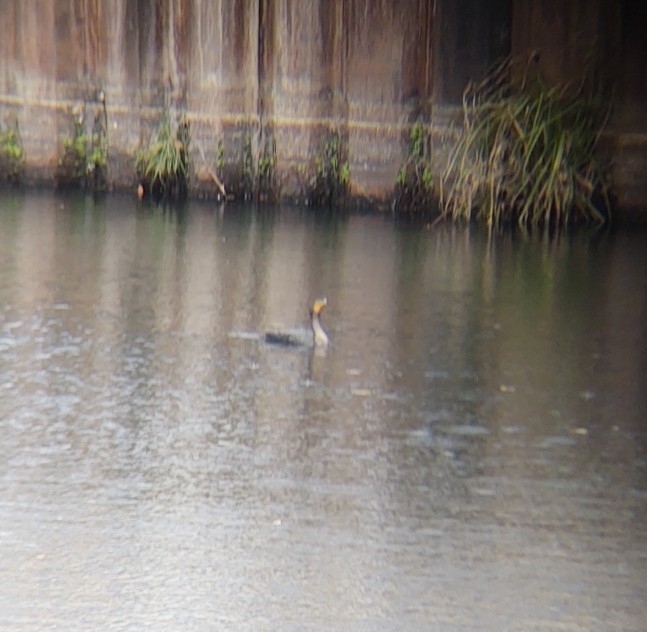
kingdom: Animalia
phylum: Chordata
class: Aves
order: Suliformes
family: Phalacrocoracidae
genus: Phalacrocorax
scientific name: Phalacrocorax auritus
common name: Double-crested cormorant
